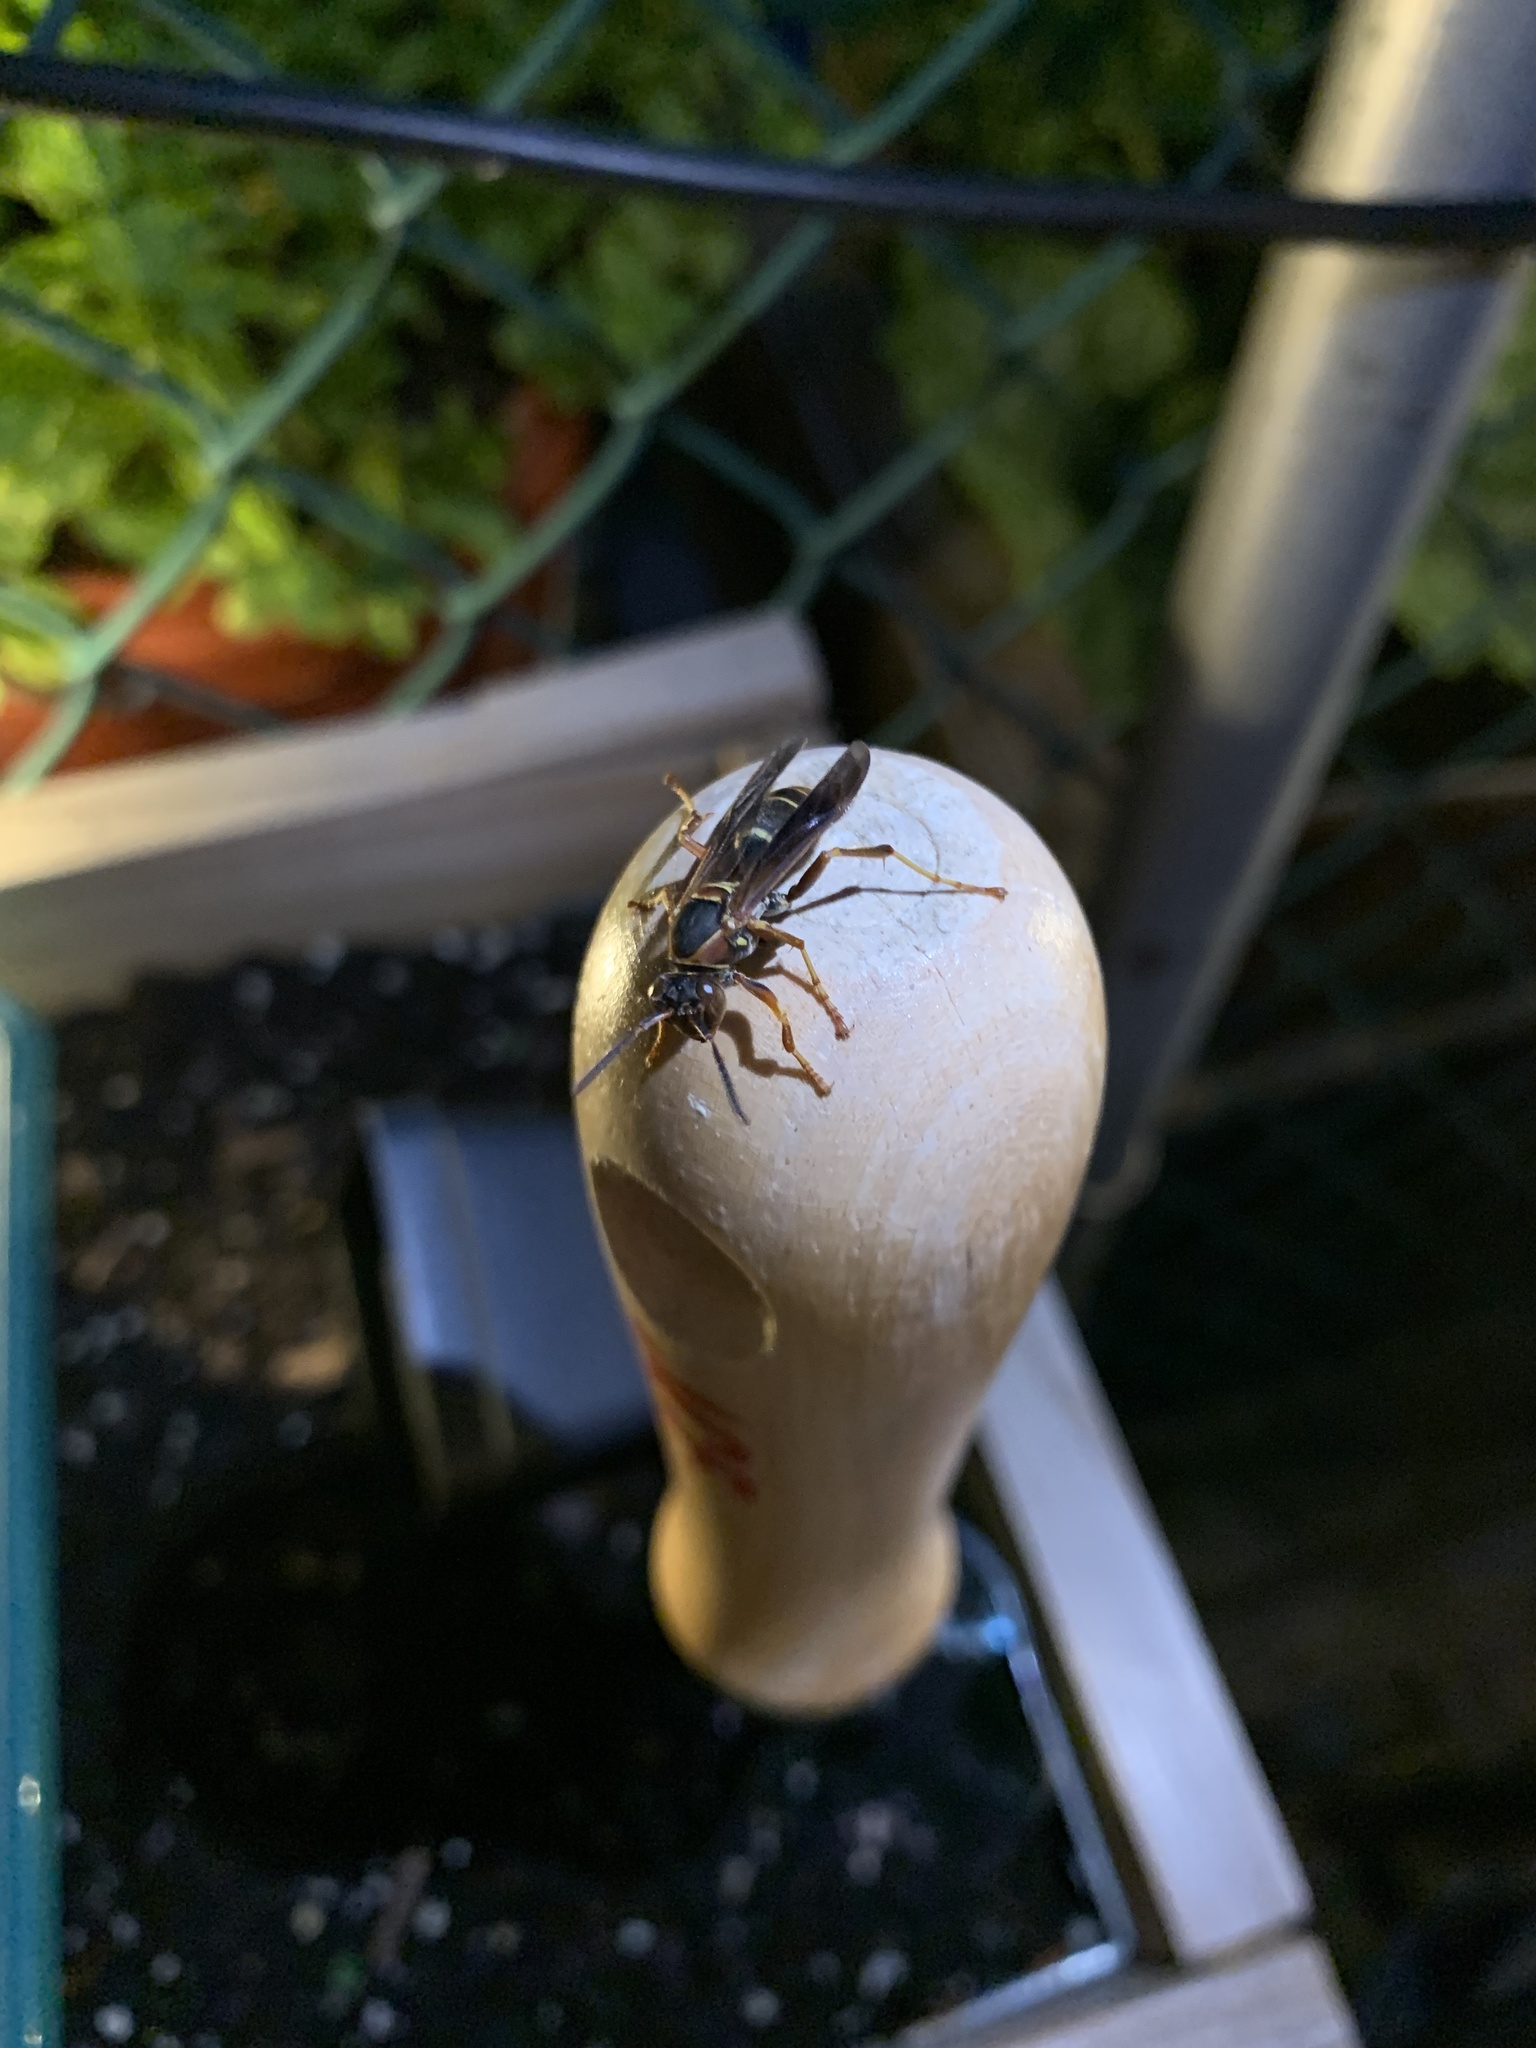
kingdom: Animalia
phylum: Arthropoda
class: Insecta
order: Hymenoptera
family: Eumenidae
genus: Polistes
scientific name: Polistes fuscatus
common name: Dark paper wasp
